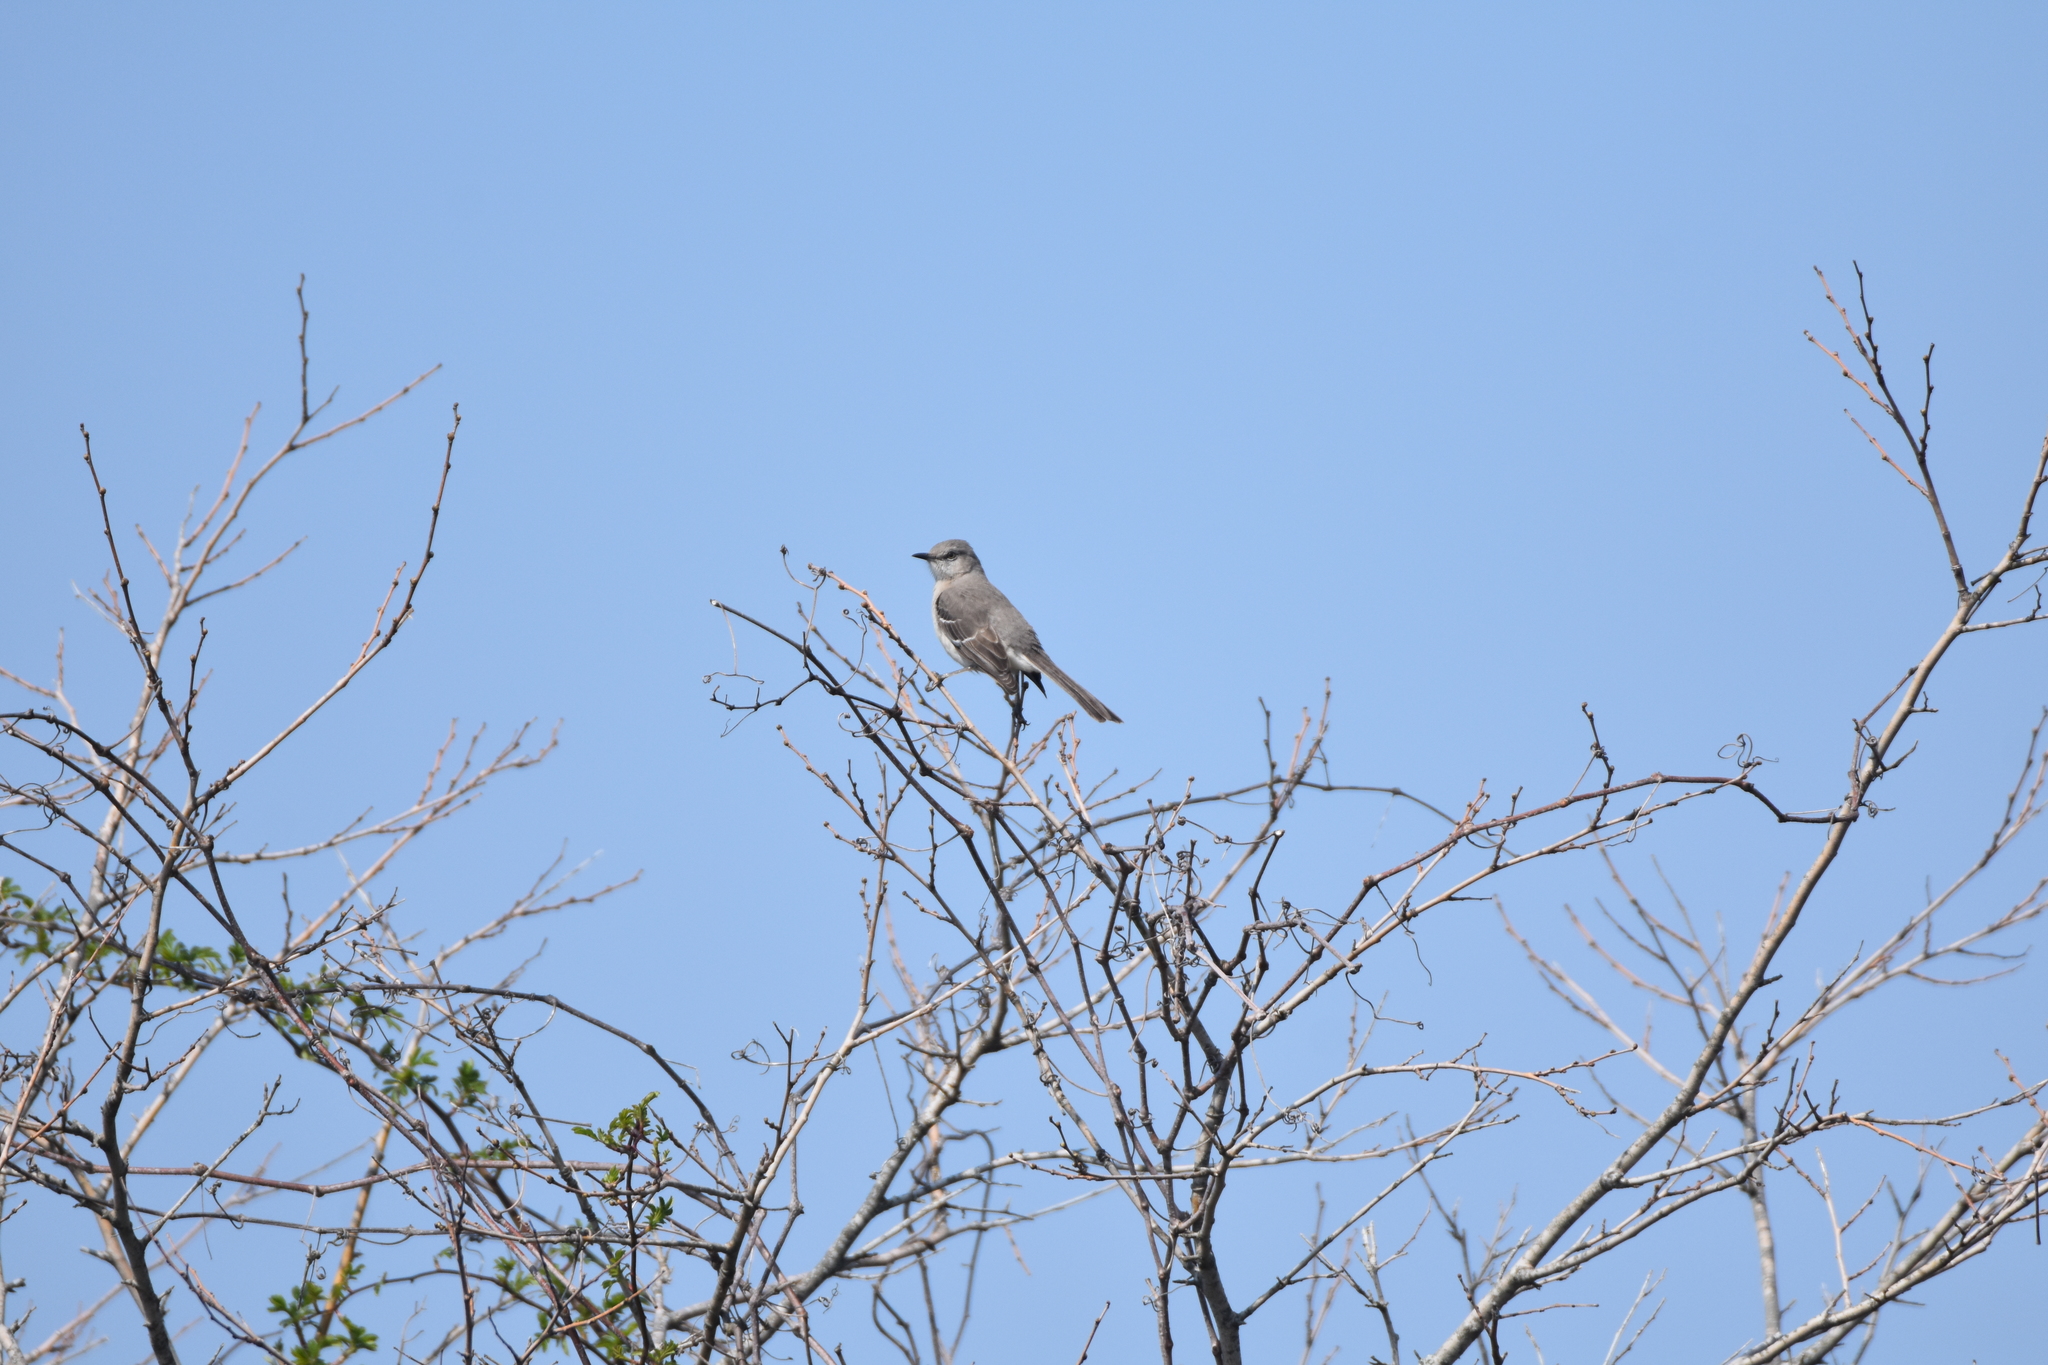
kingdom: Animalia
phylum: Chordata
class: Aves
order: Passeriformes
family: Mimidae
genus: Mimus
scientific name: Mimus polyglottos
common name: Northern mockingbird
